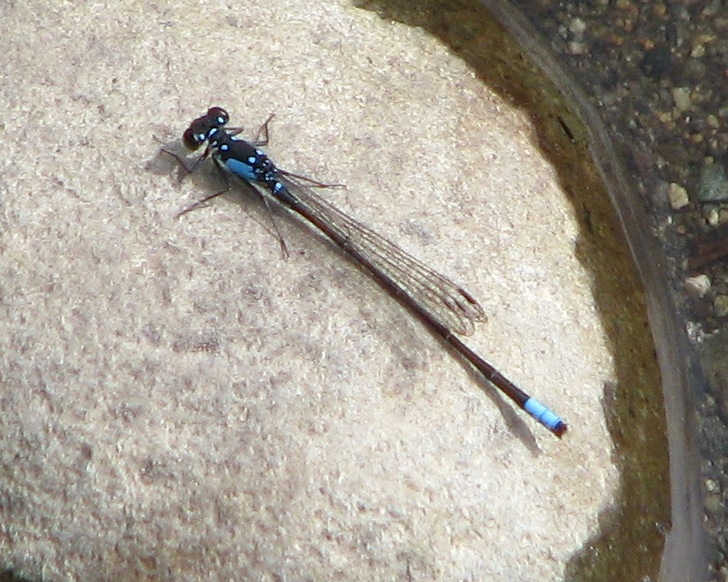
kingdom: Animalia
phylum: Arthropoda
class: Insecta
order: Odonata
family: Coenagrionidae
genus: Ischnura
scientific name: Ischnura cervula
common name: Pacific forktail
